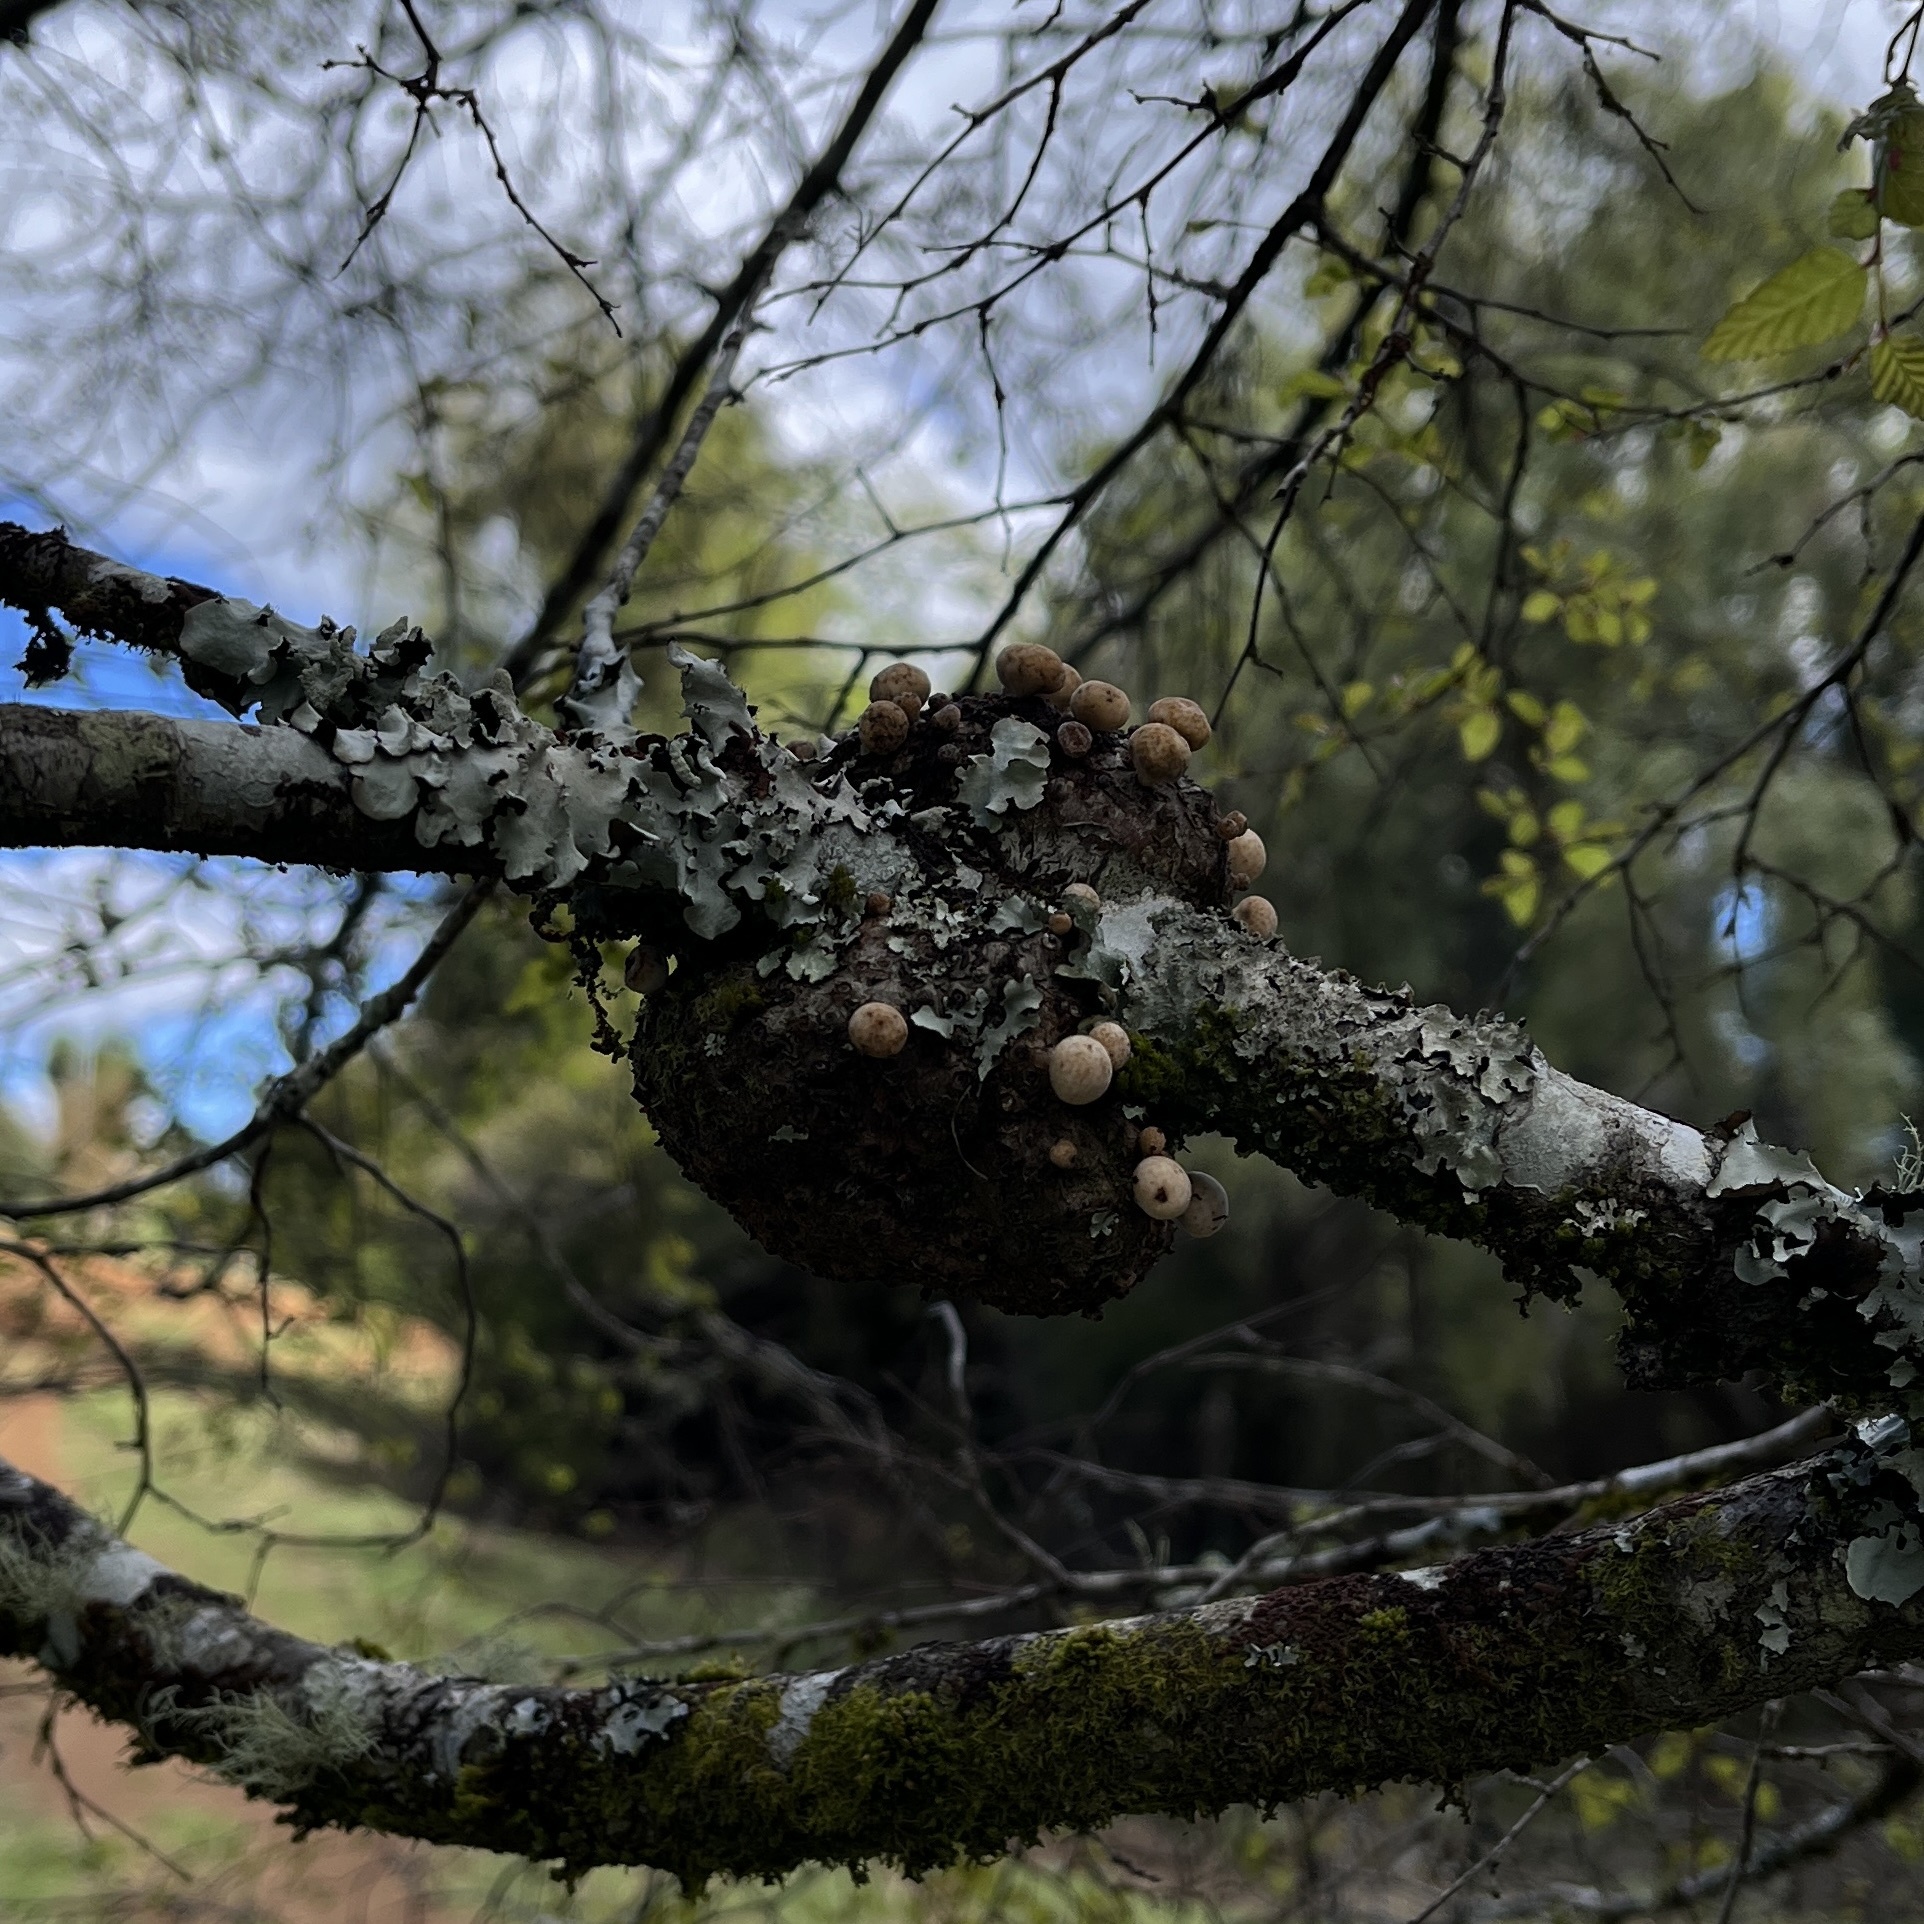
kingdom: Fungi
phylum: Ascomycota
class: Leotiomycetes
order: Cyttariales
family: Cyttariaceae
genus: Cyttaria
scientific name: Cyttaria espinosae
